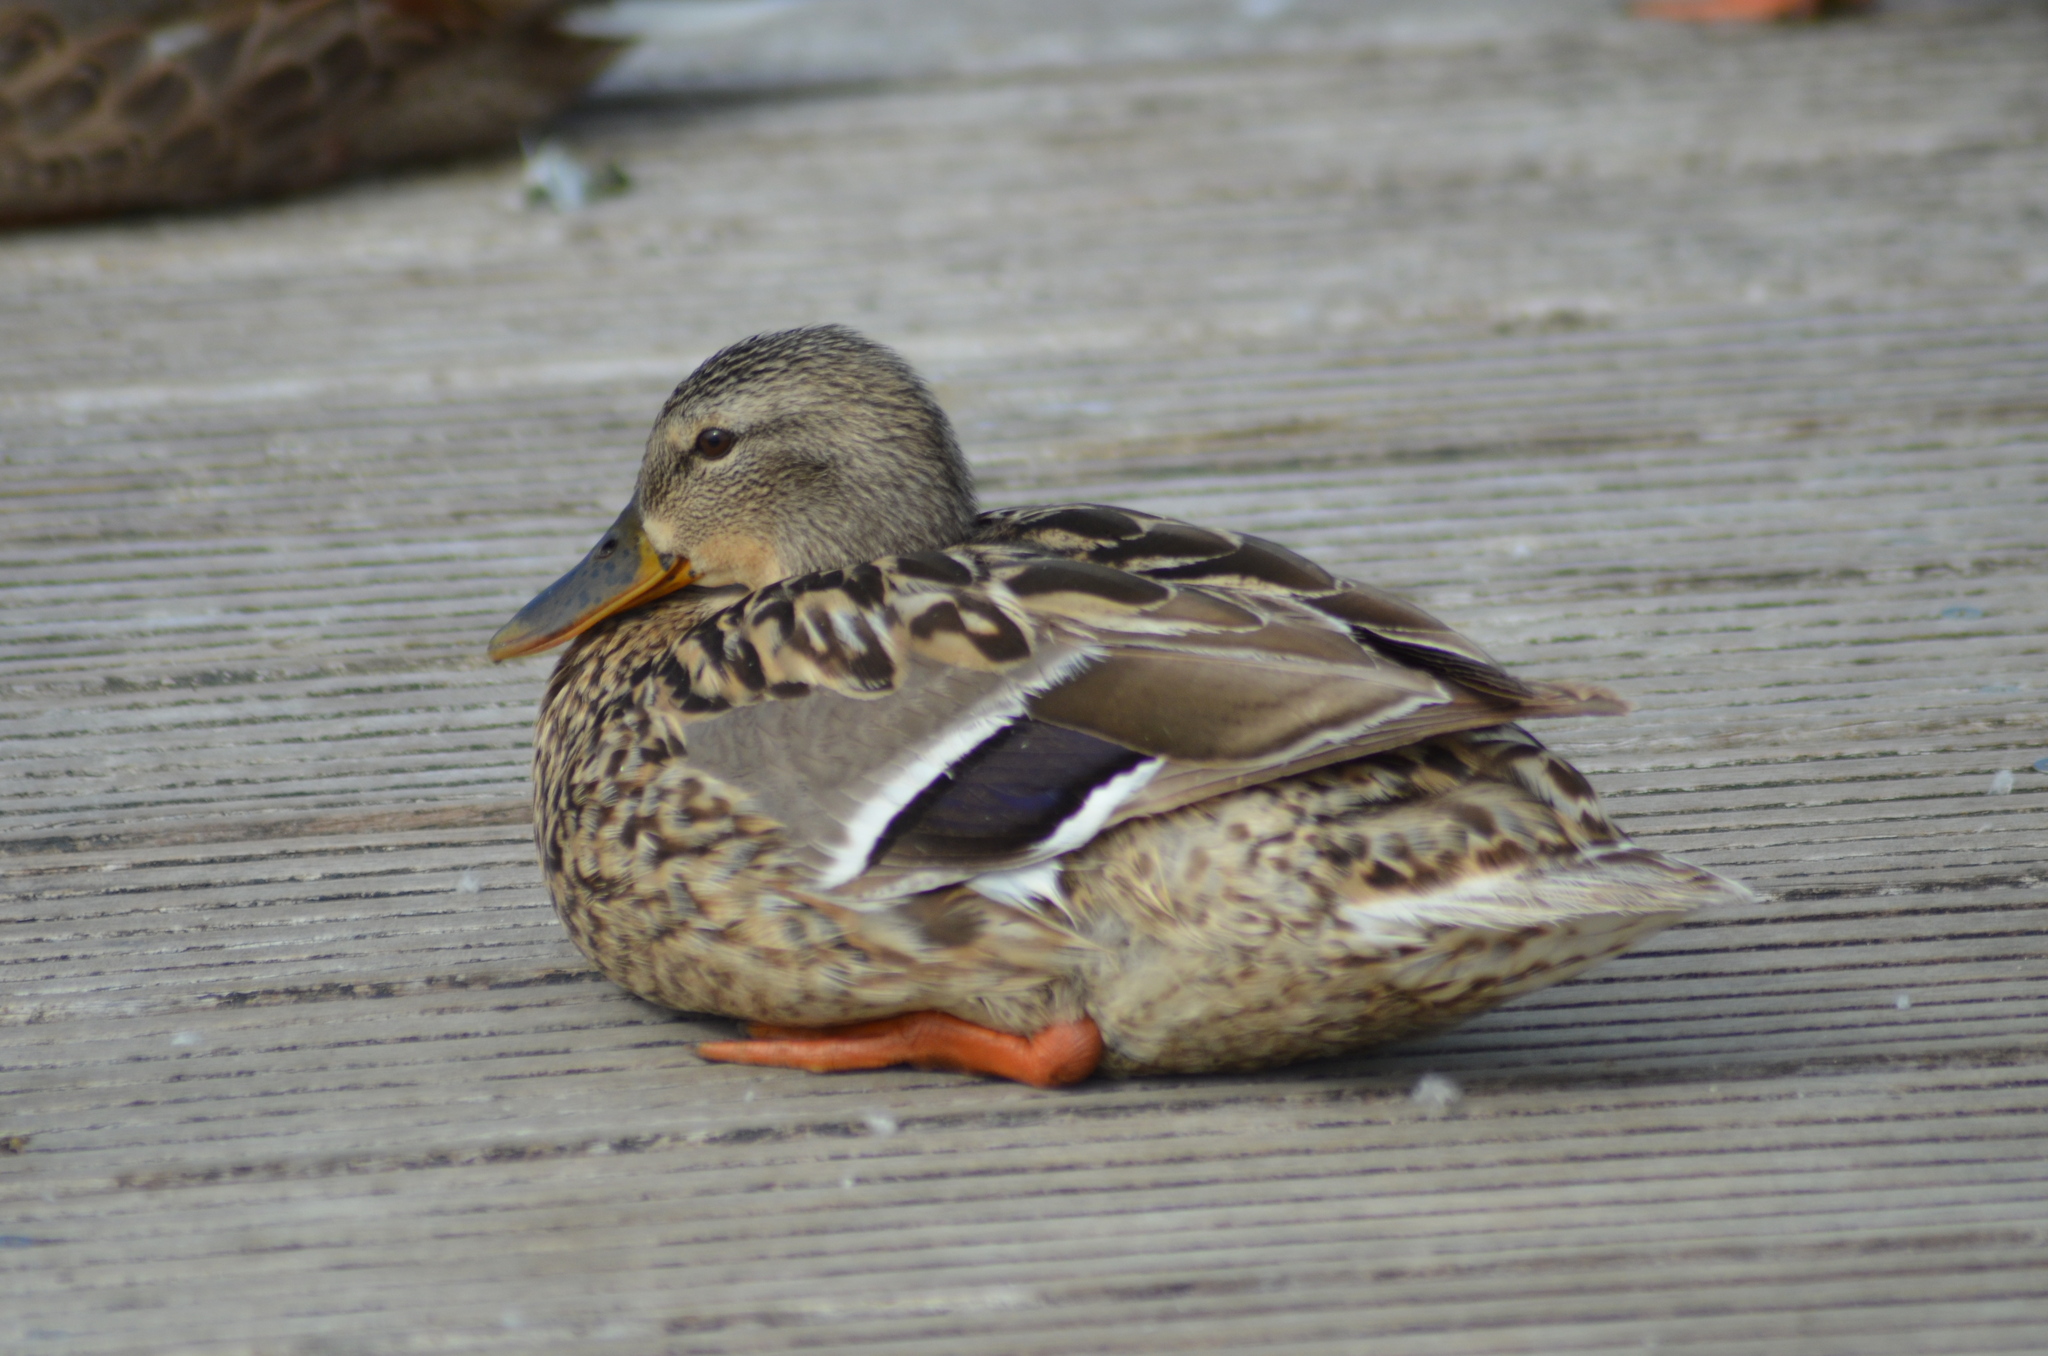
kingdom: Animalia
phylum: Chordata
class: Aves
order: Anseriformes
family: Anatidae
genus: Anas
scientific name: Anas platyrhynchos
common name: Mallard
